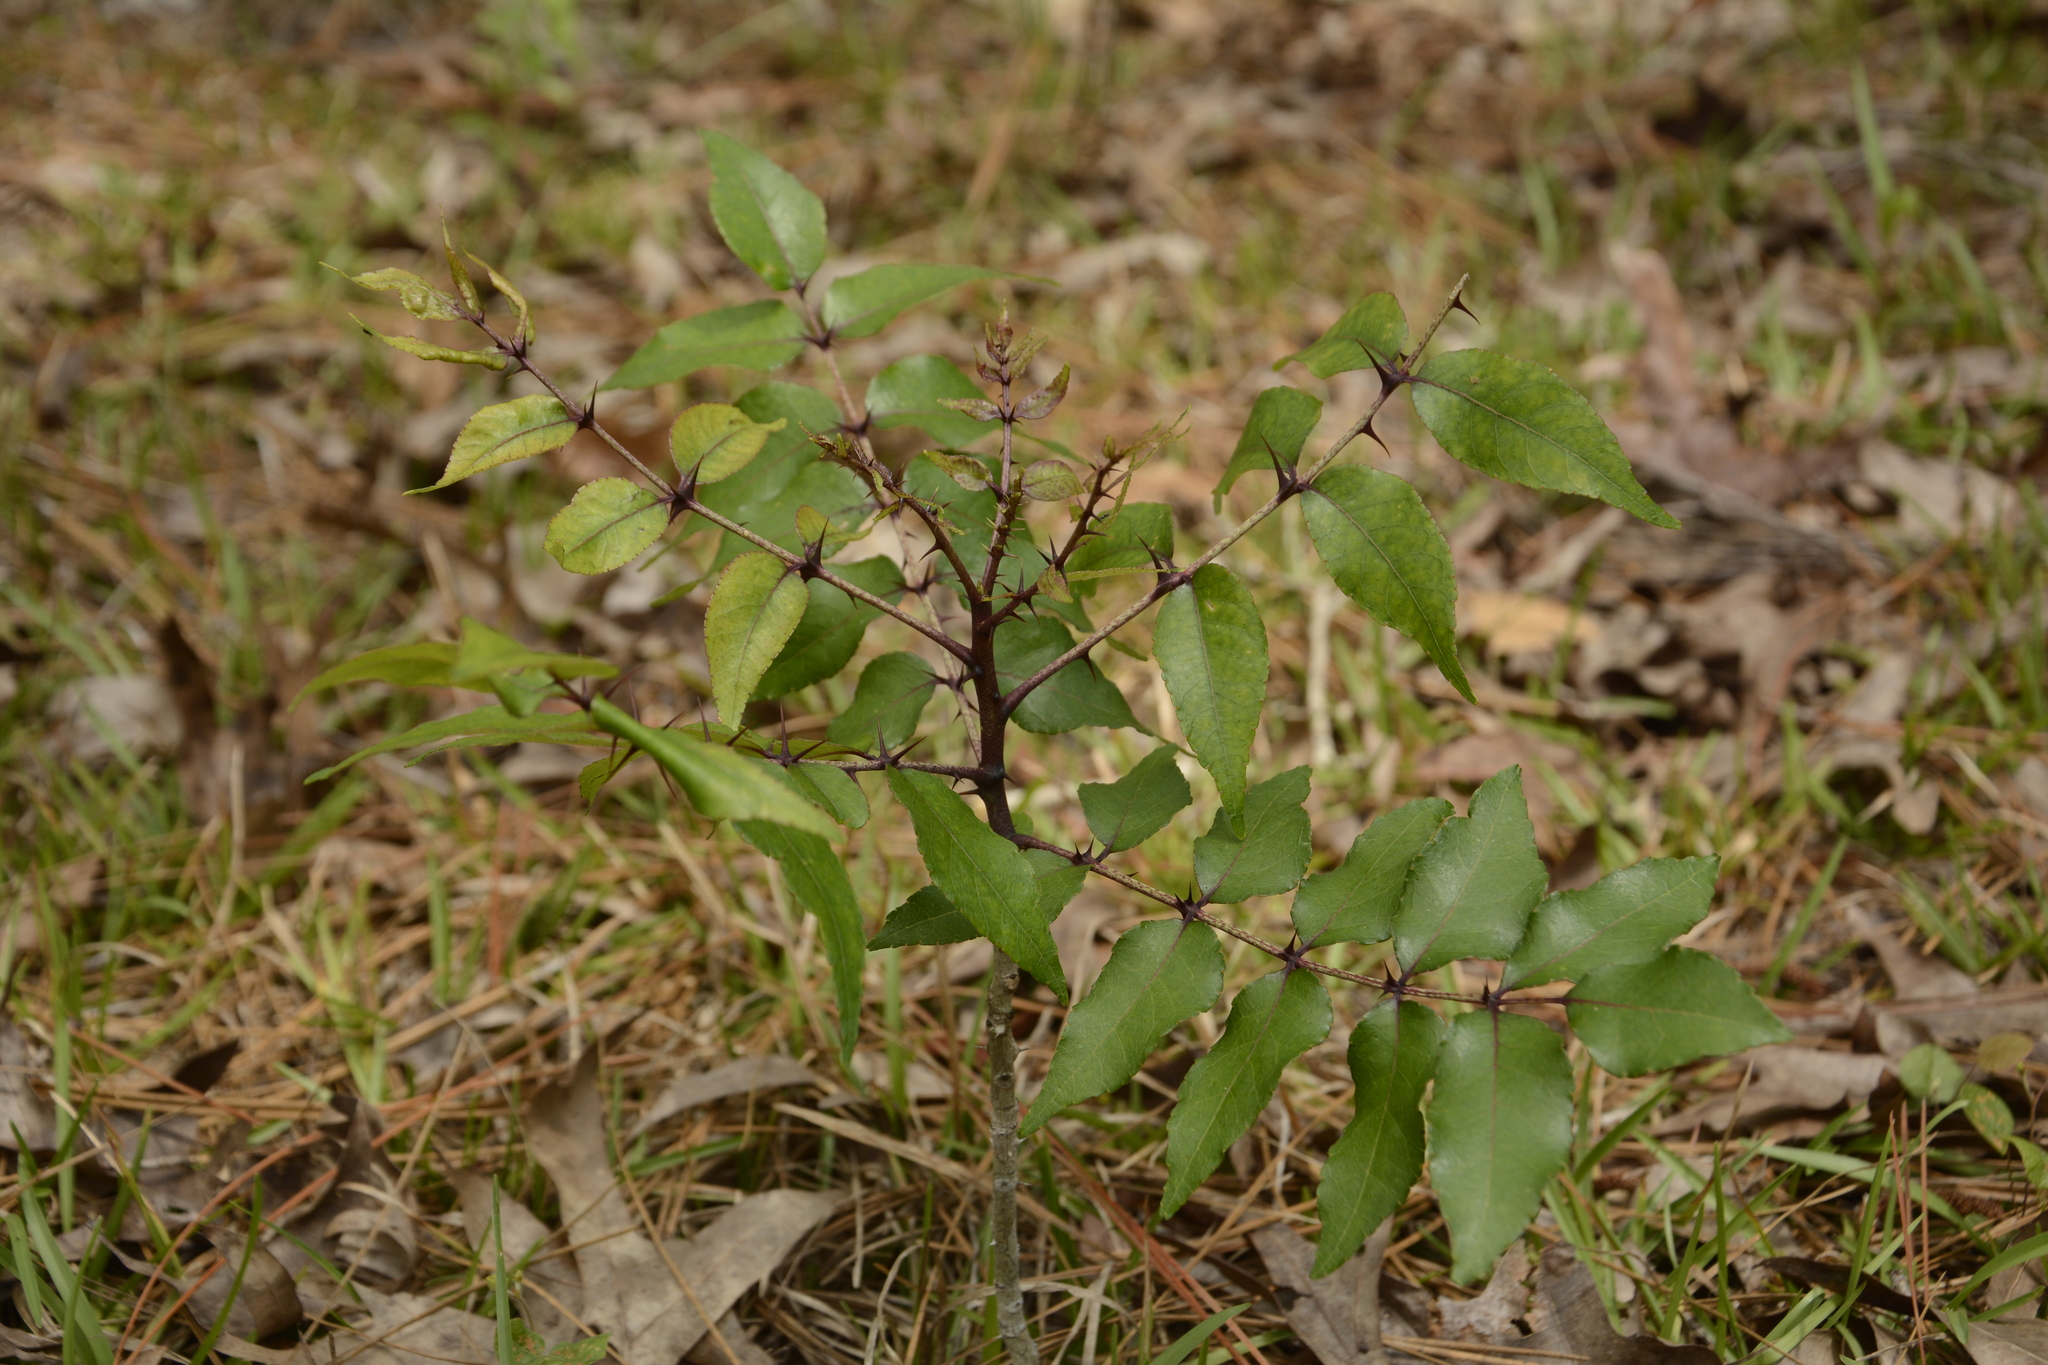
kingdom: Plantae
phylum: Tracheophyta
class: Magnoliopsida
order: Sapindales
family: Rutaceae
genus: Zanthoxylum
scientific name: Zanthoxylum clava-herculis
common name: Hercules'-club
